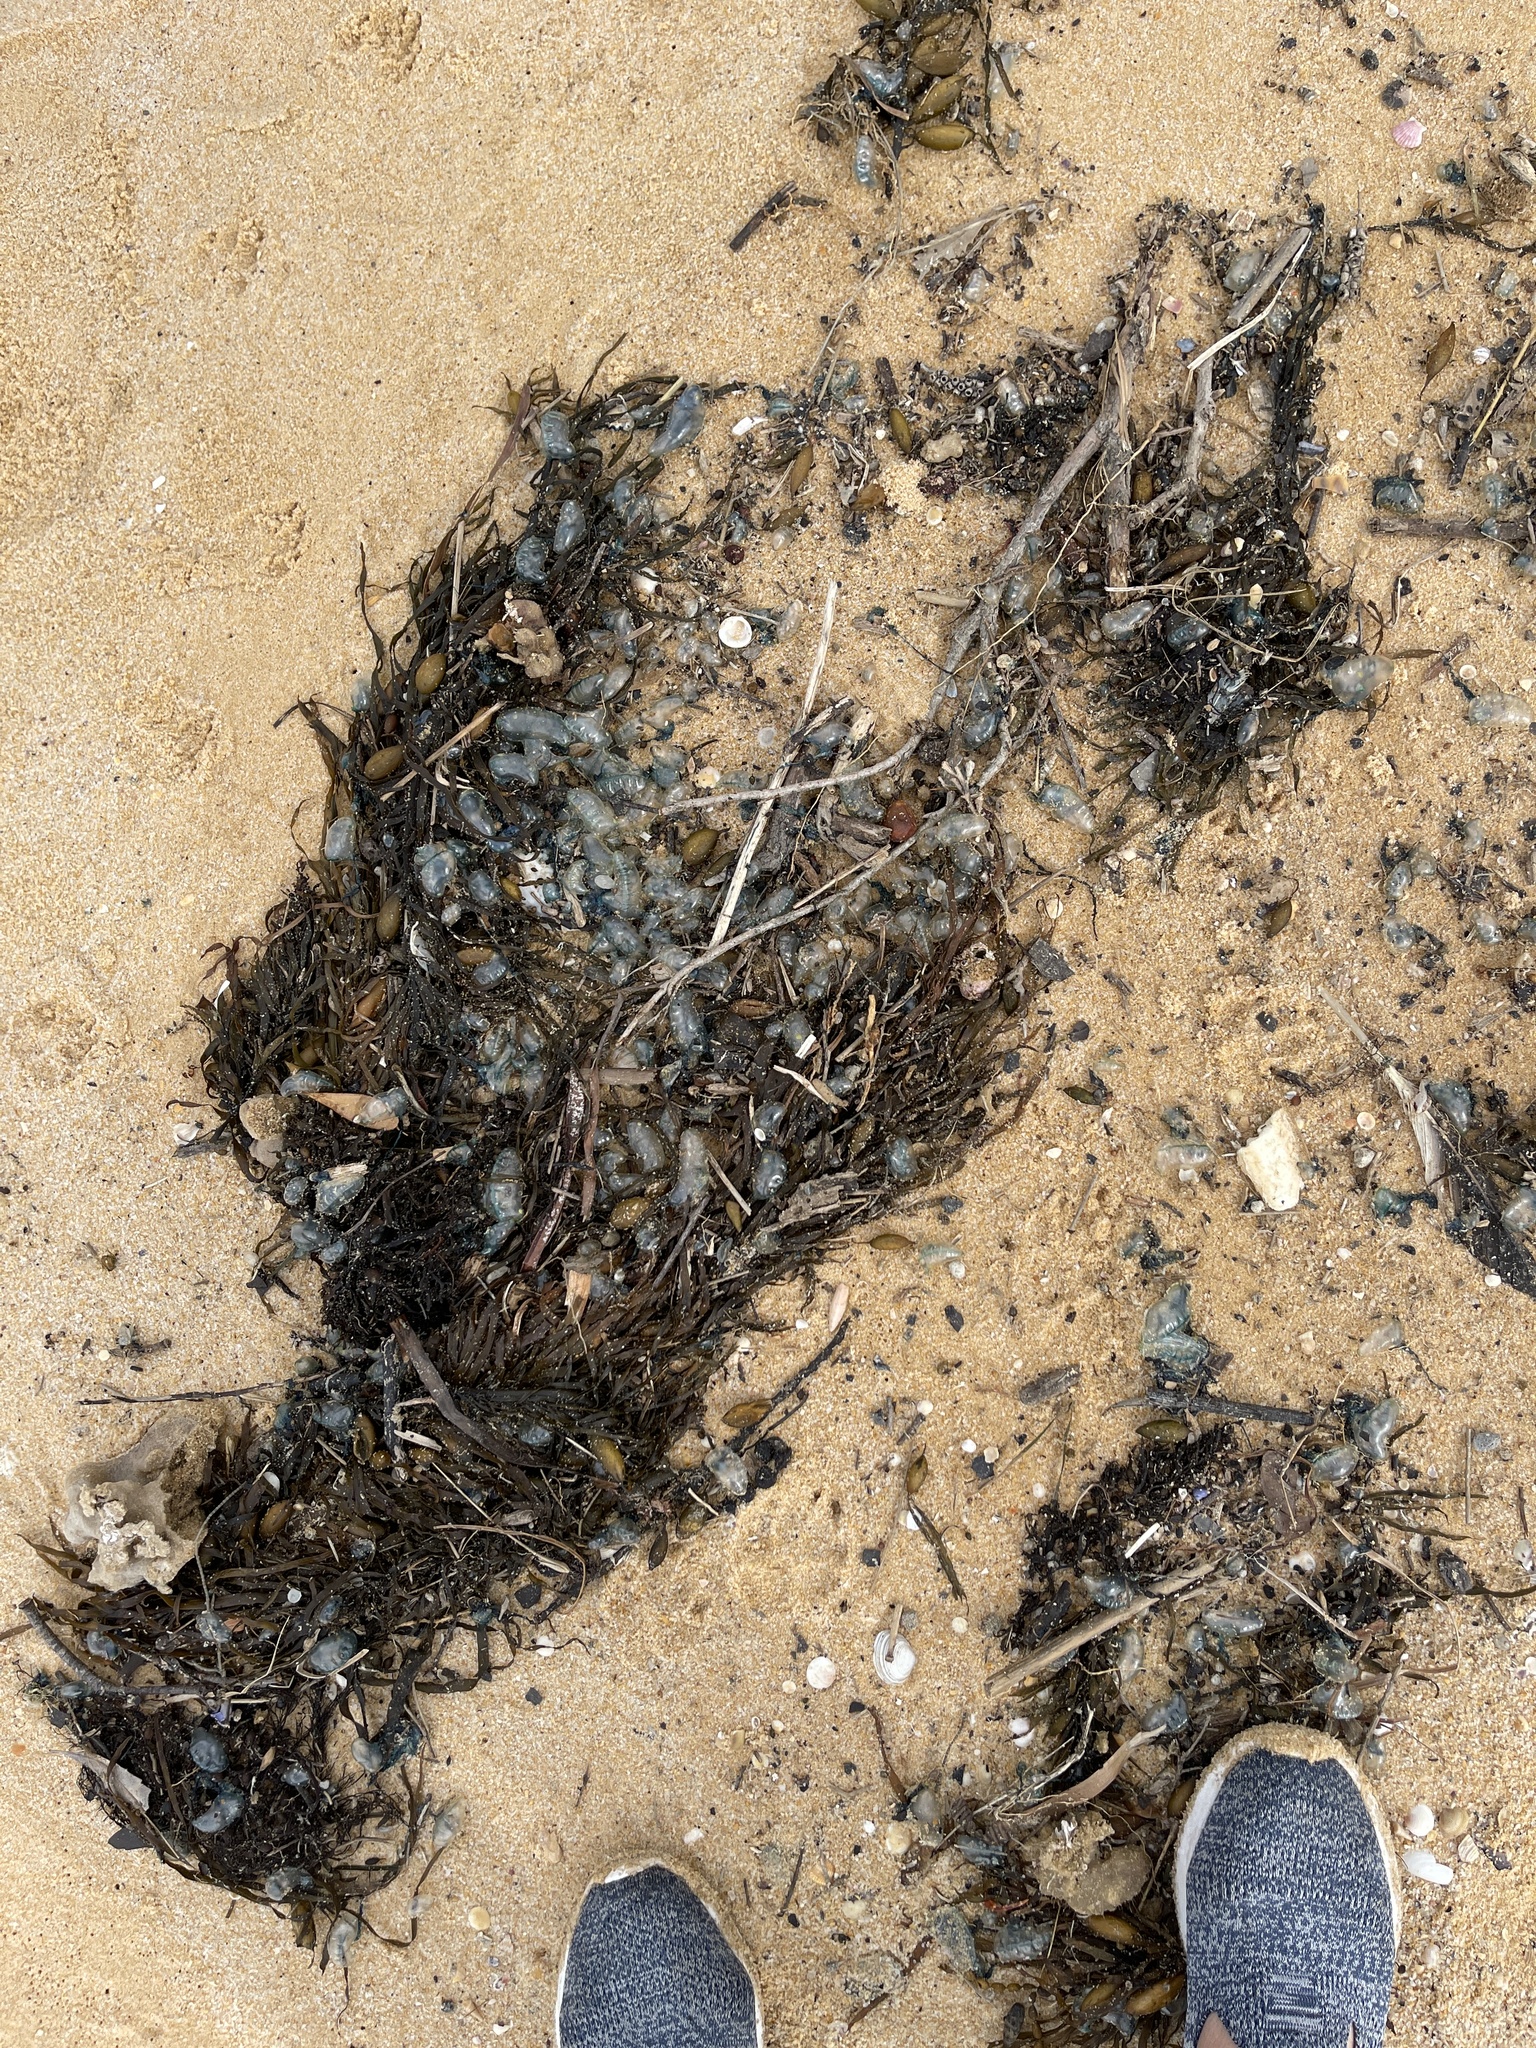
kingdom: Animalia
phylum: Cnidaria
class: Hydrozoa
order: Siphonophorae
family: Physaliidae
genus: Physalia
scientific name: Physalia physalis
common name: Portuguese man-of-war
